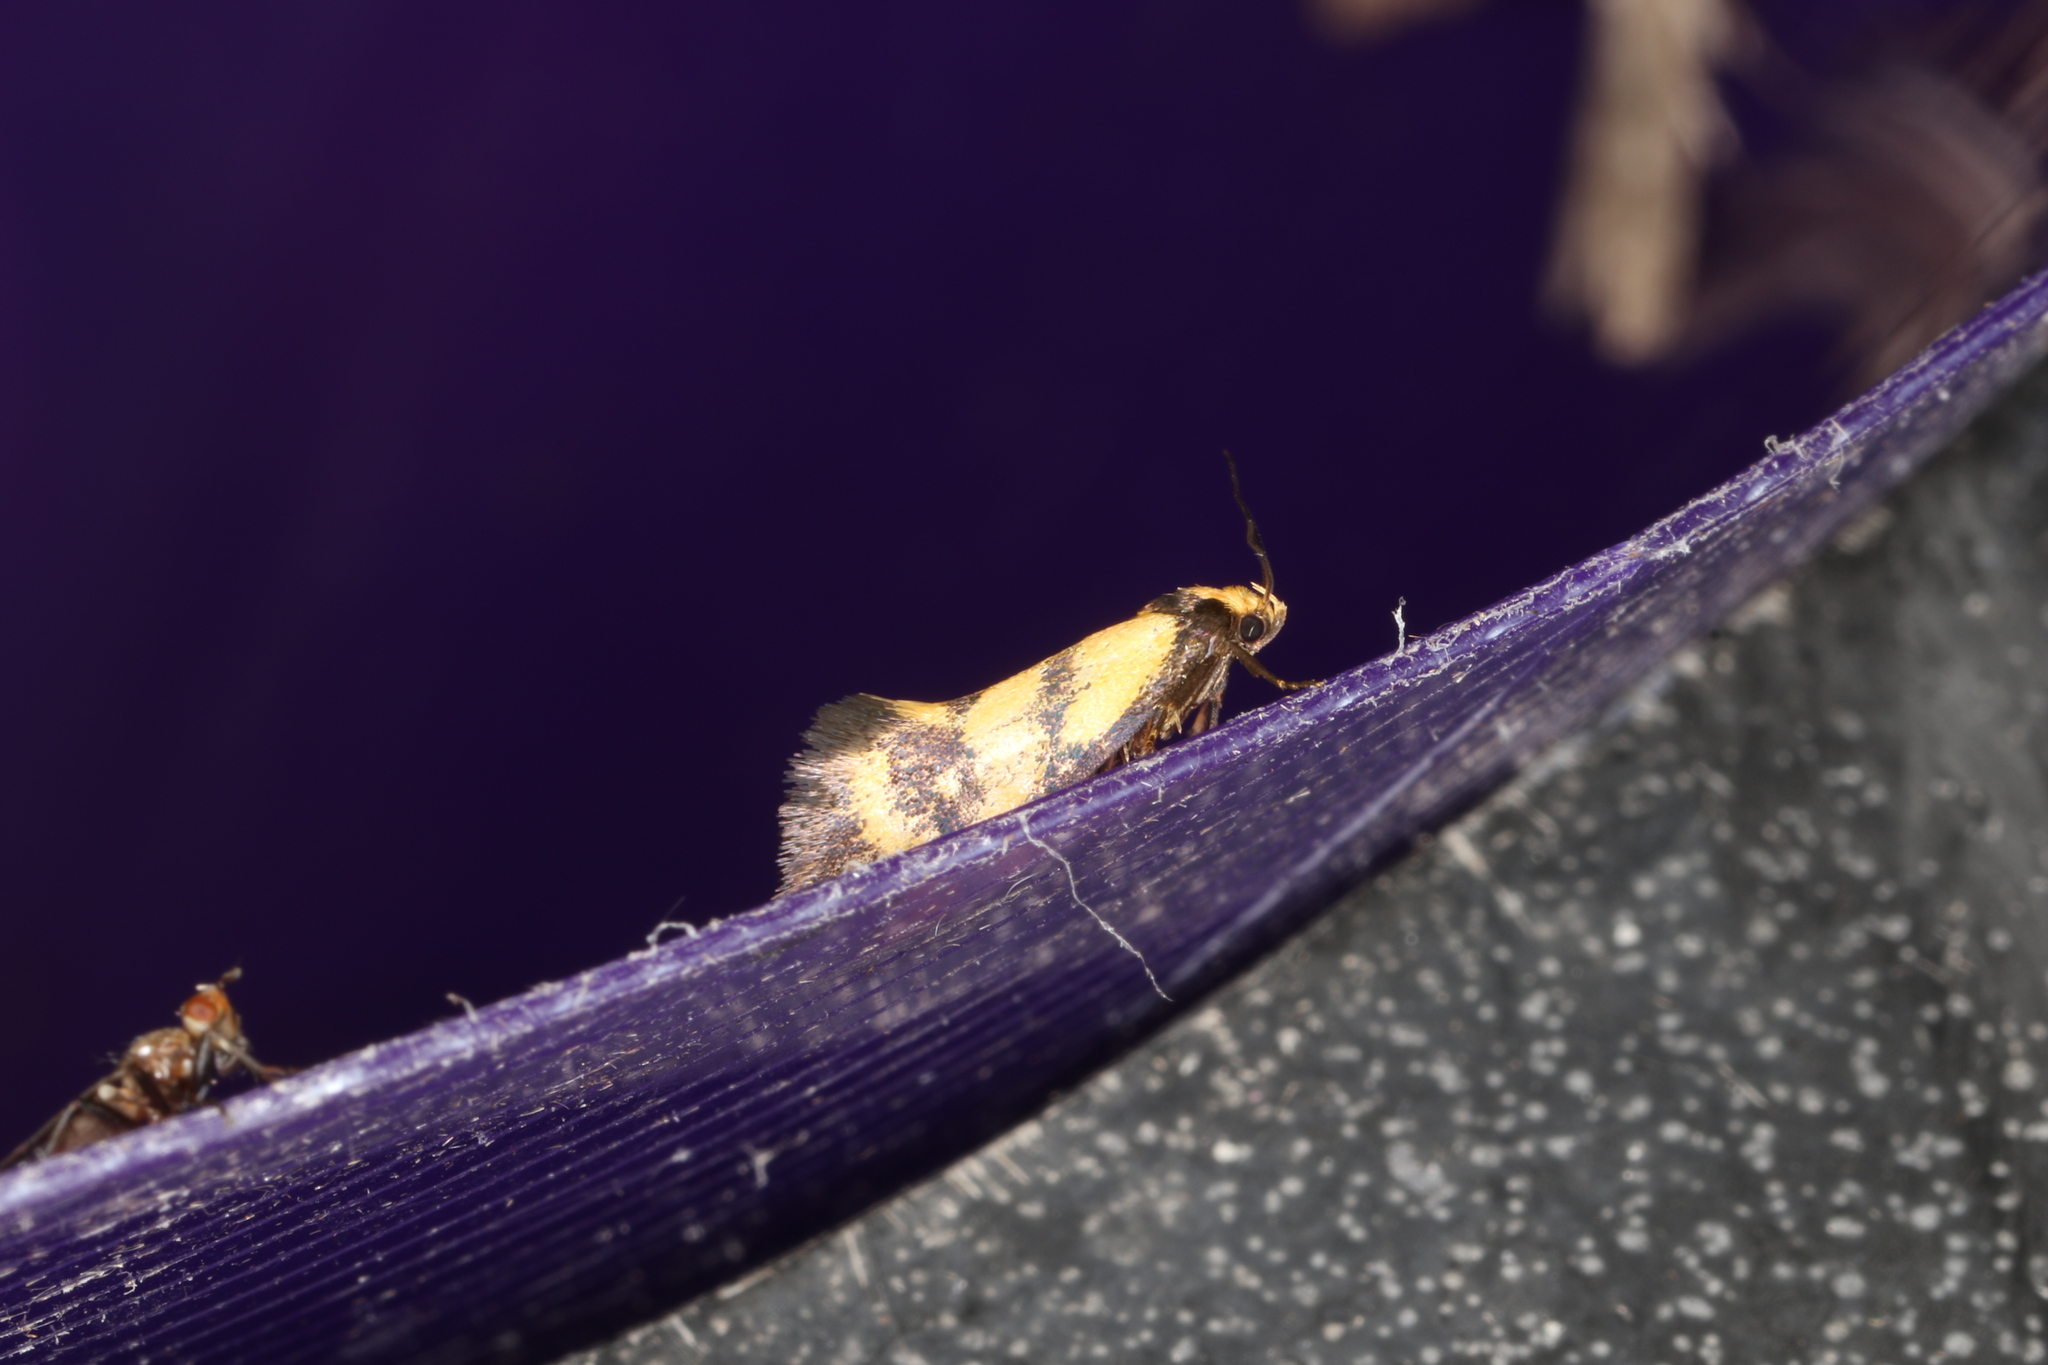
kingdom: Animalia
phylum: Arthropoda
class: Insecta
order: Lepidoptera
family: Oecophoridae
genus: Olbonoma
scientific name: Olbonoma triptycha
